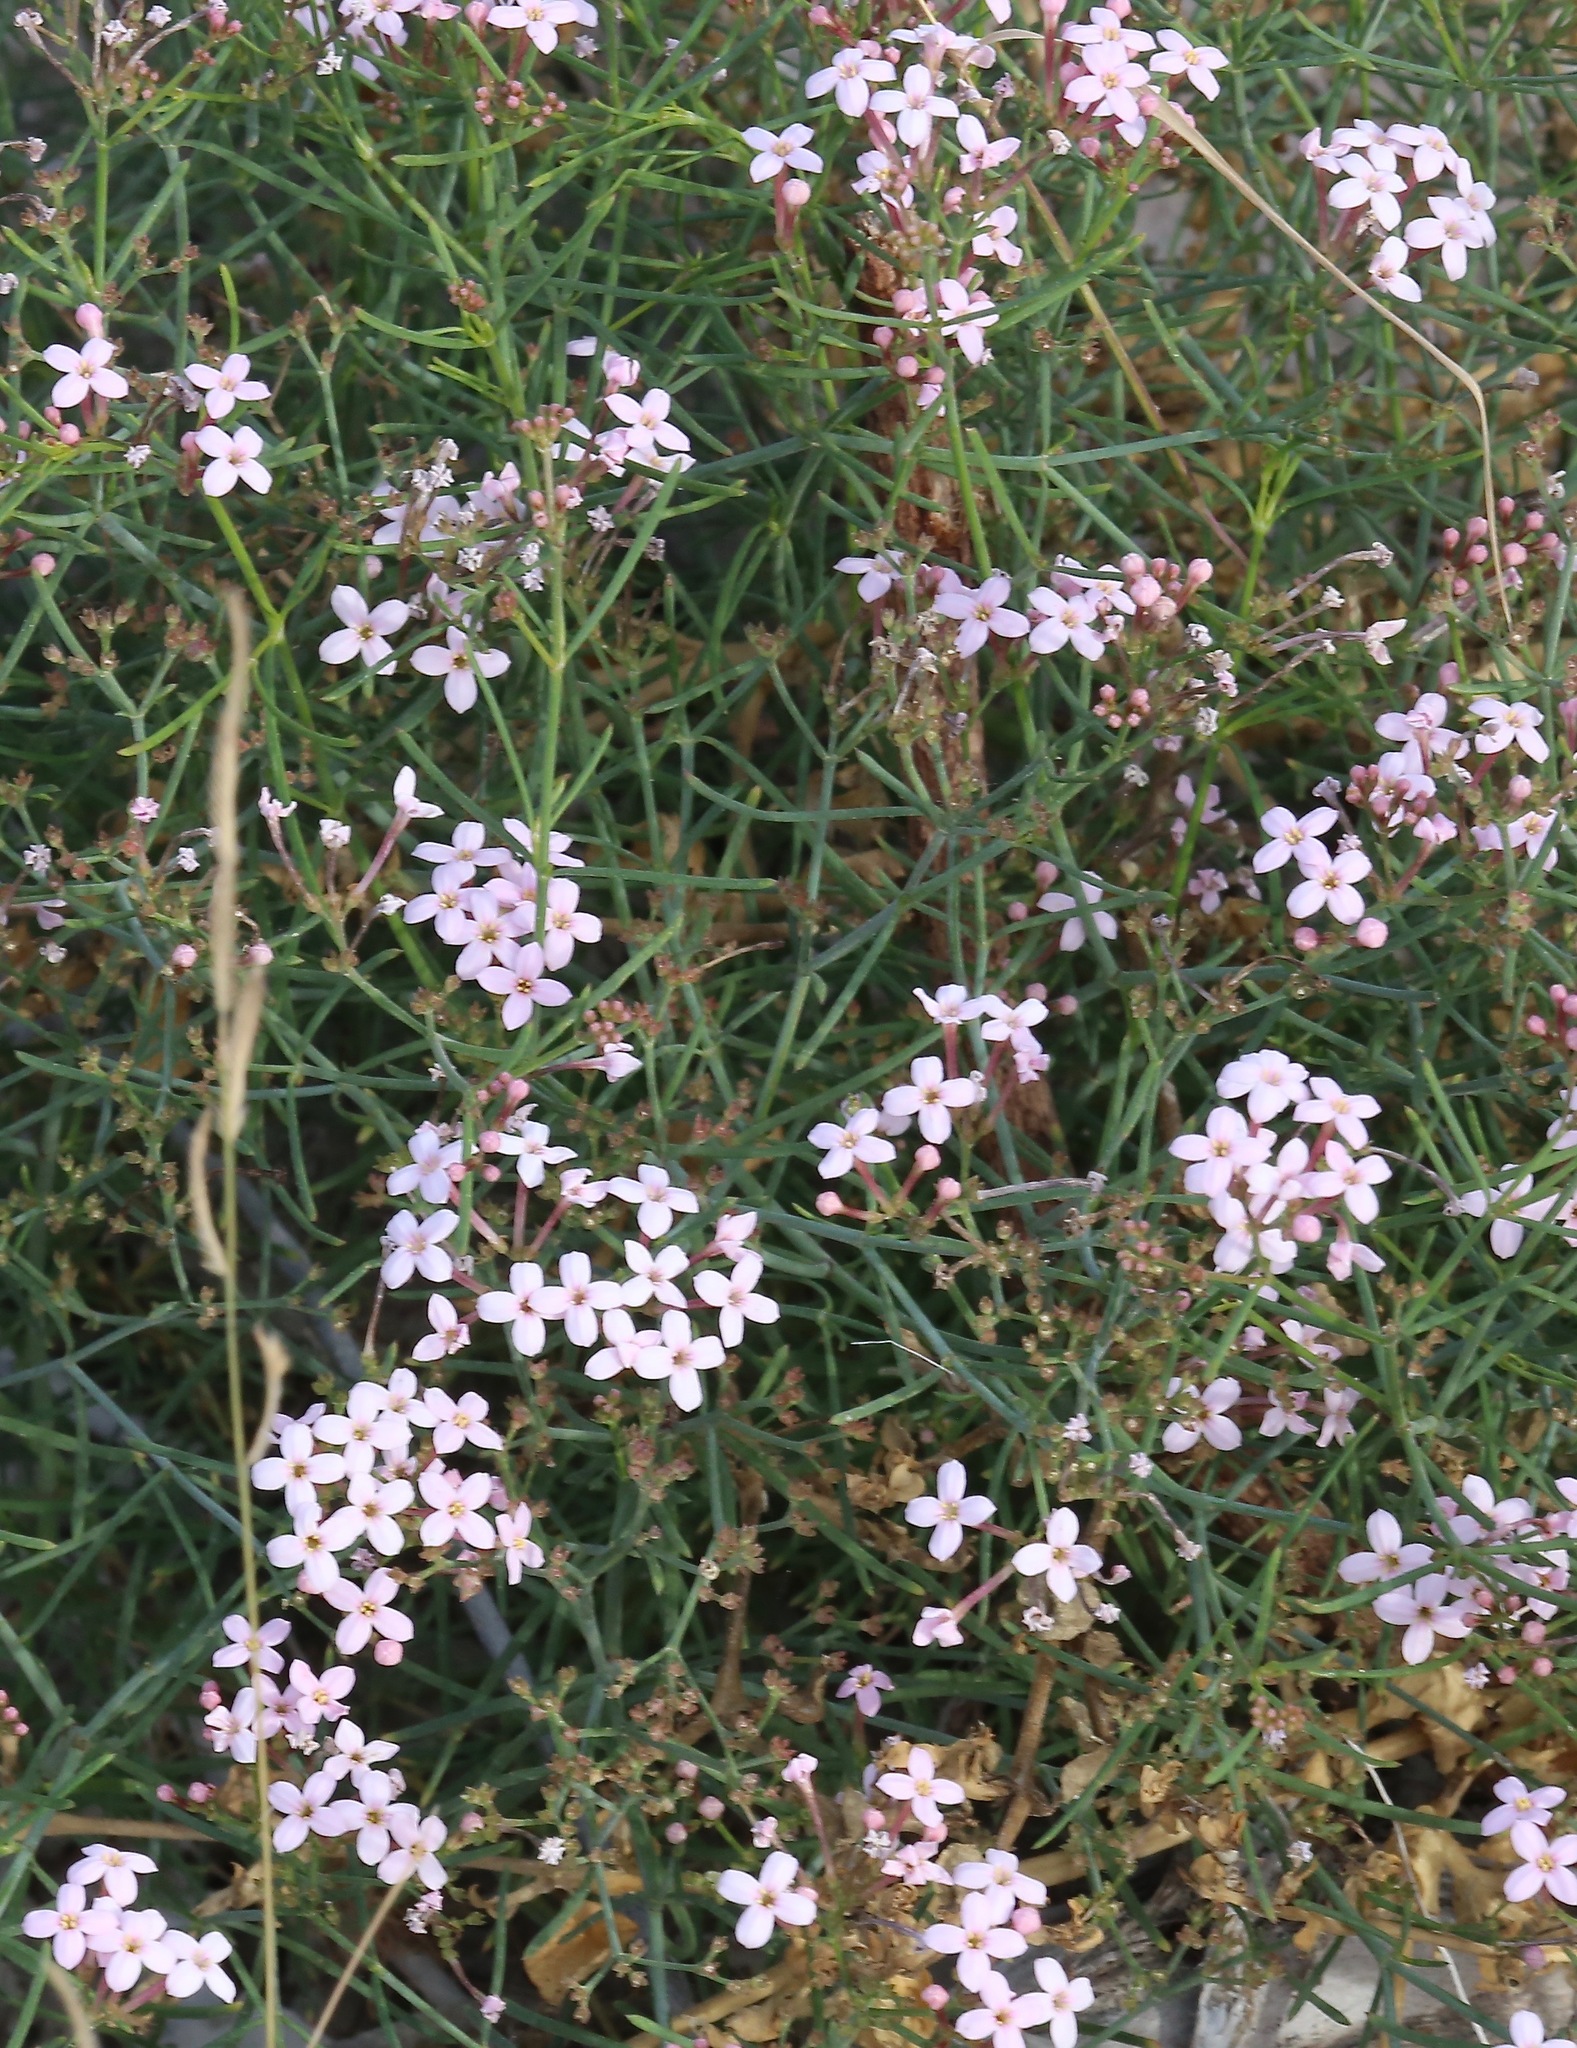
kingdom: Plantae
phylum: Tracheophyta
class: Magnoliopsida
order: Gentianales
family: Rubiaceae
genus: Stenotis
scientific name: Stenotis brevipes
